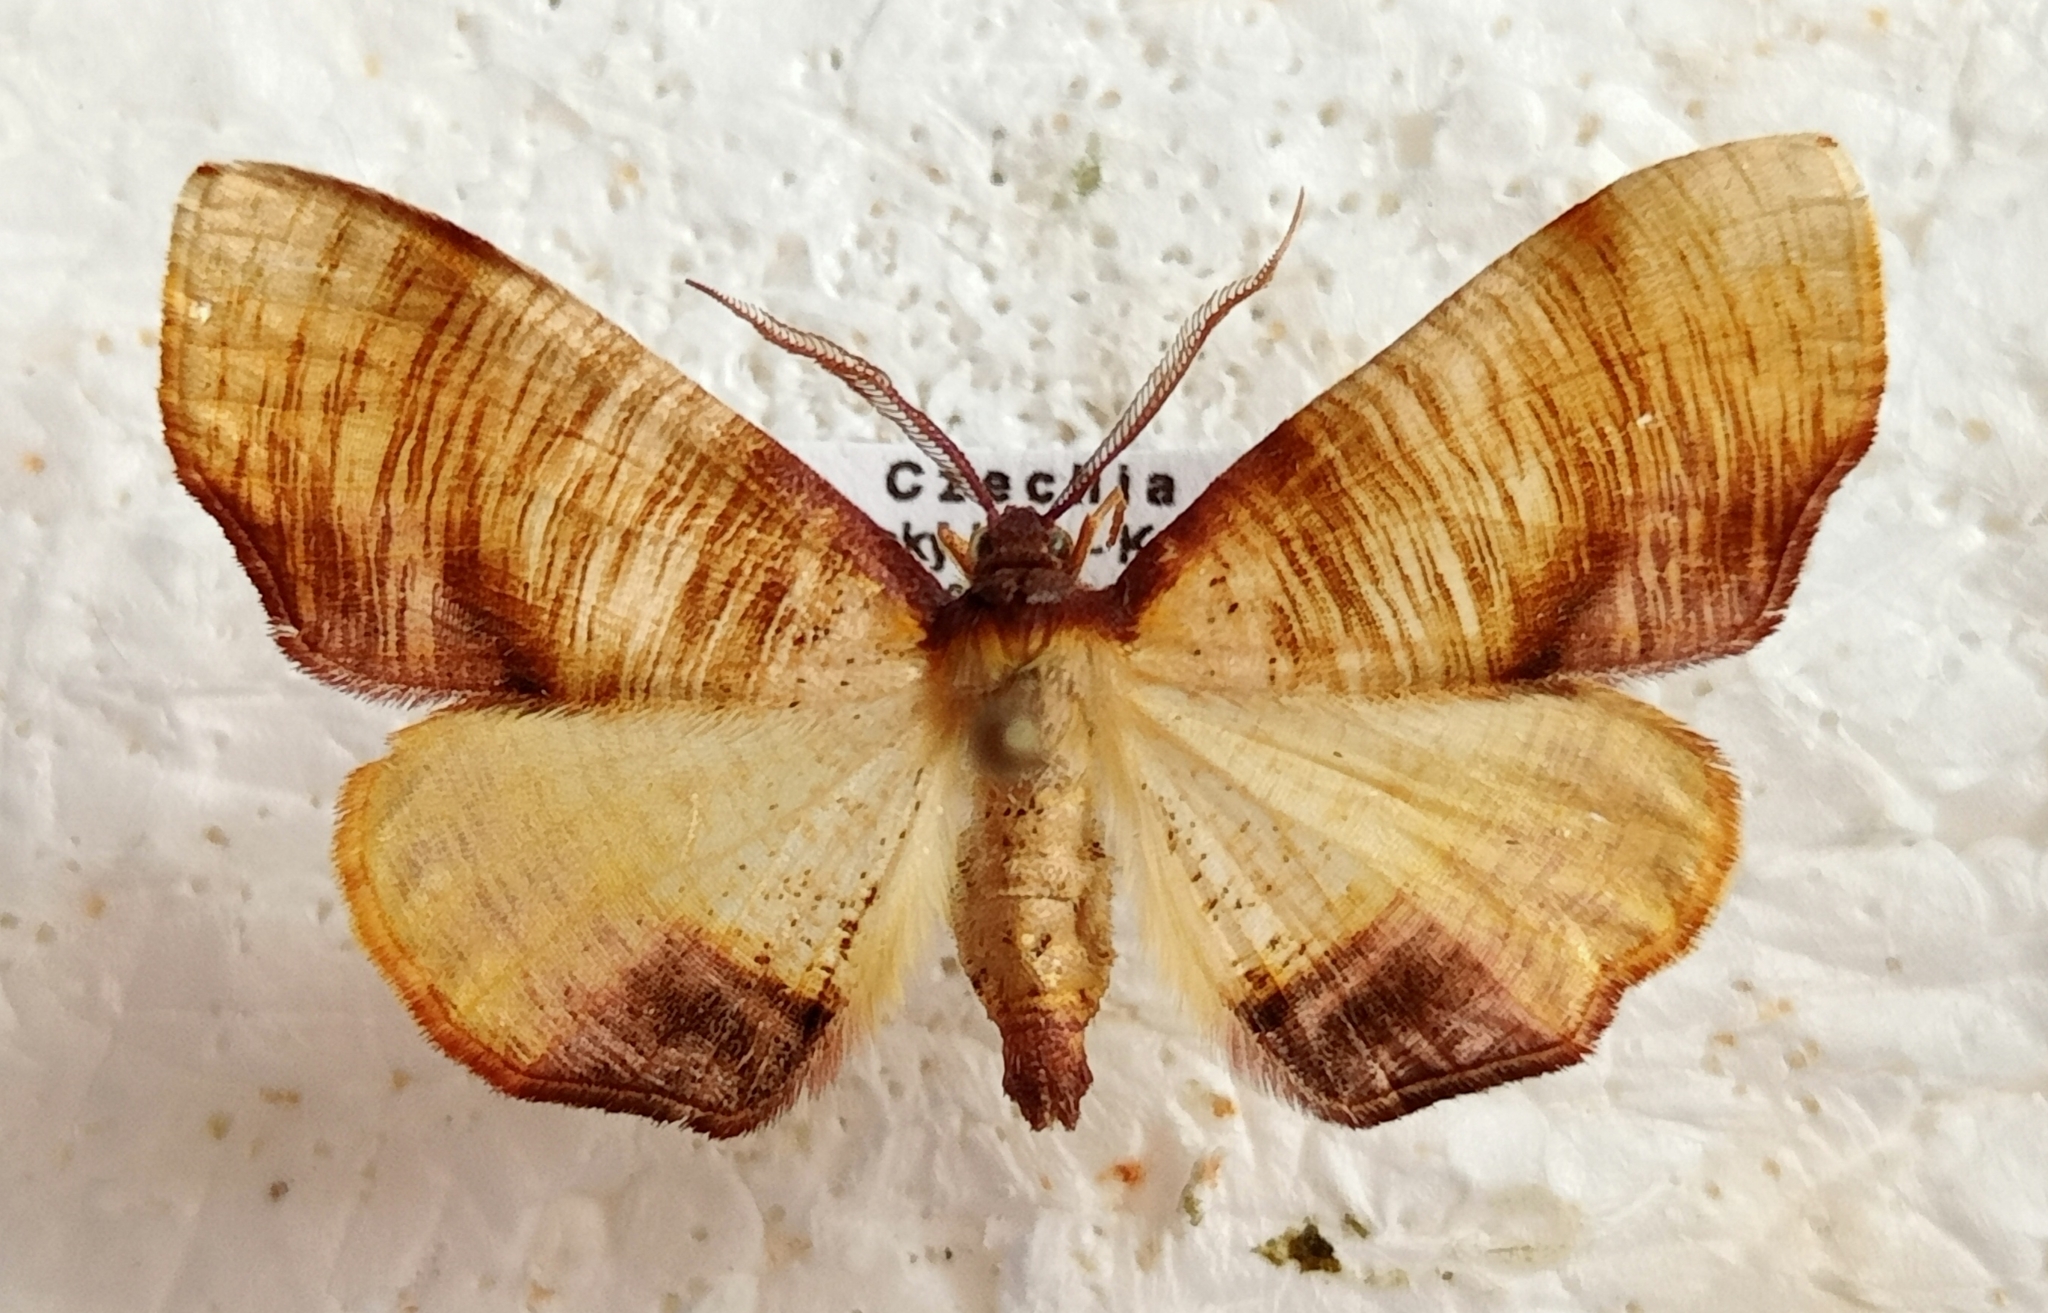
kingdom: Animalia
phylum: Arthropoda
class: Insecta
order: Lepidoptera
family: Geometridae
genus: Plagodis
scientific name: Plagodis dolabraria
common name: Scorched wing
